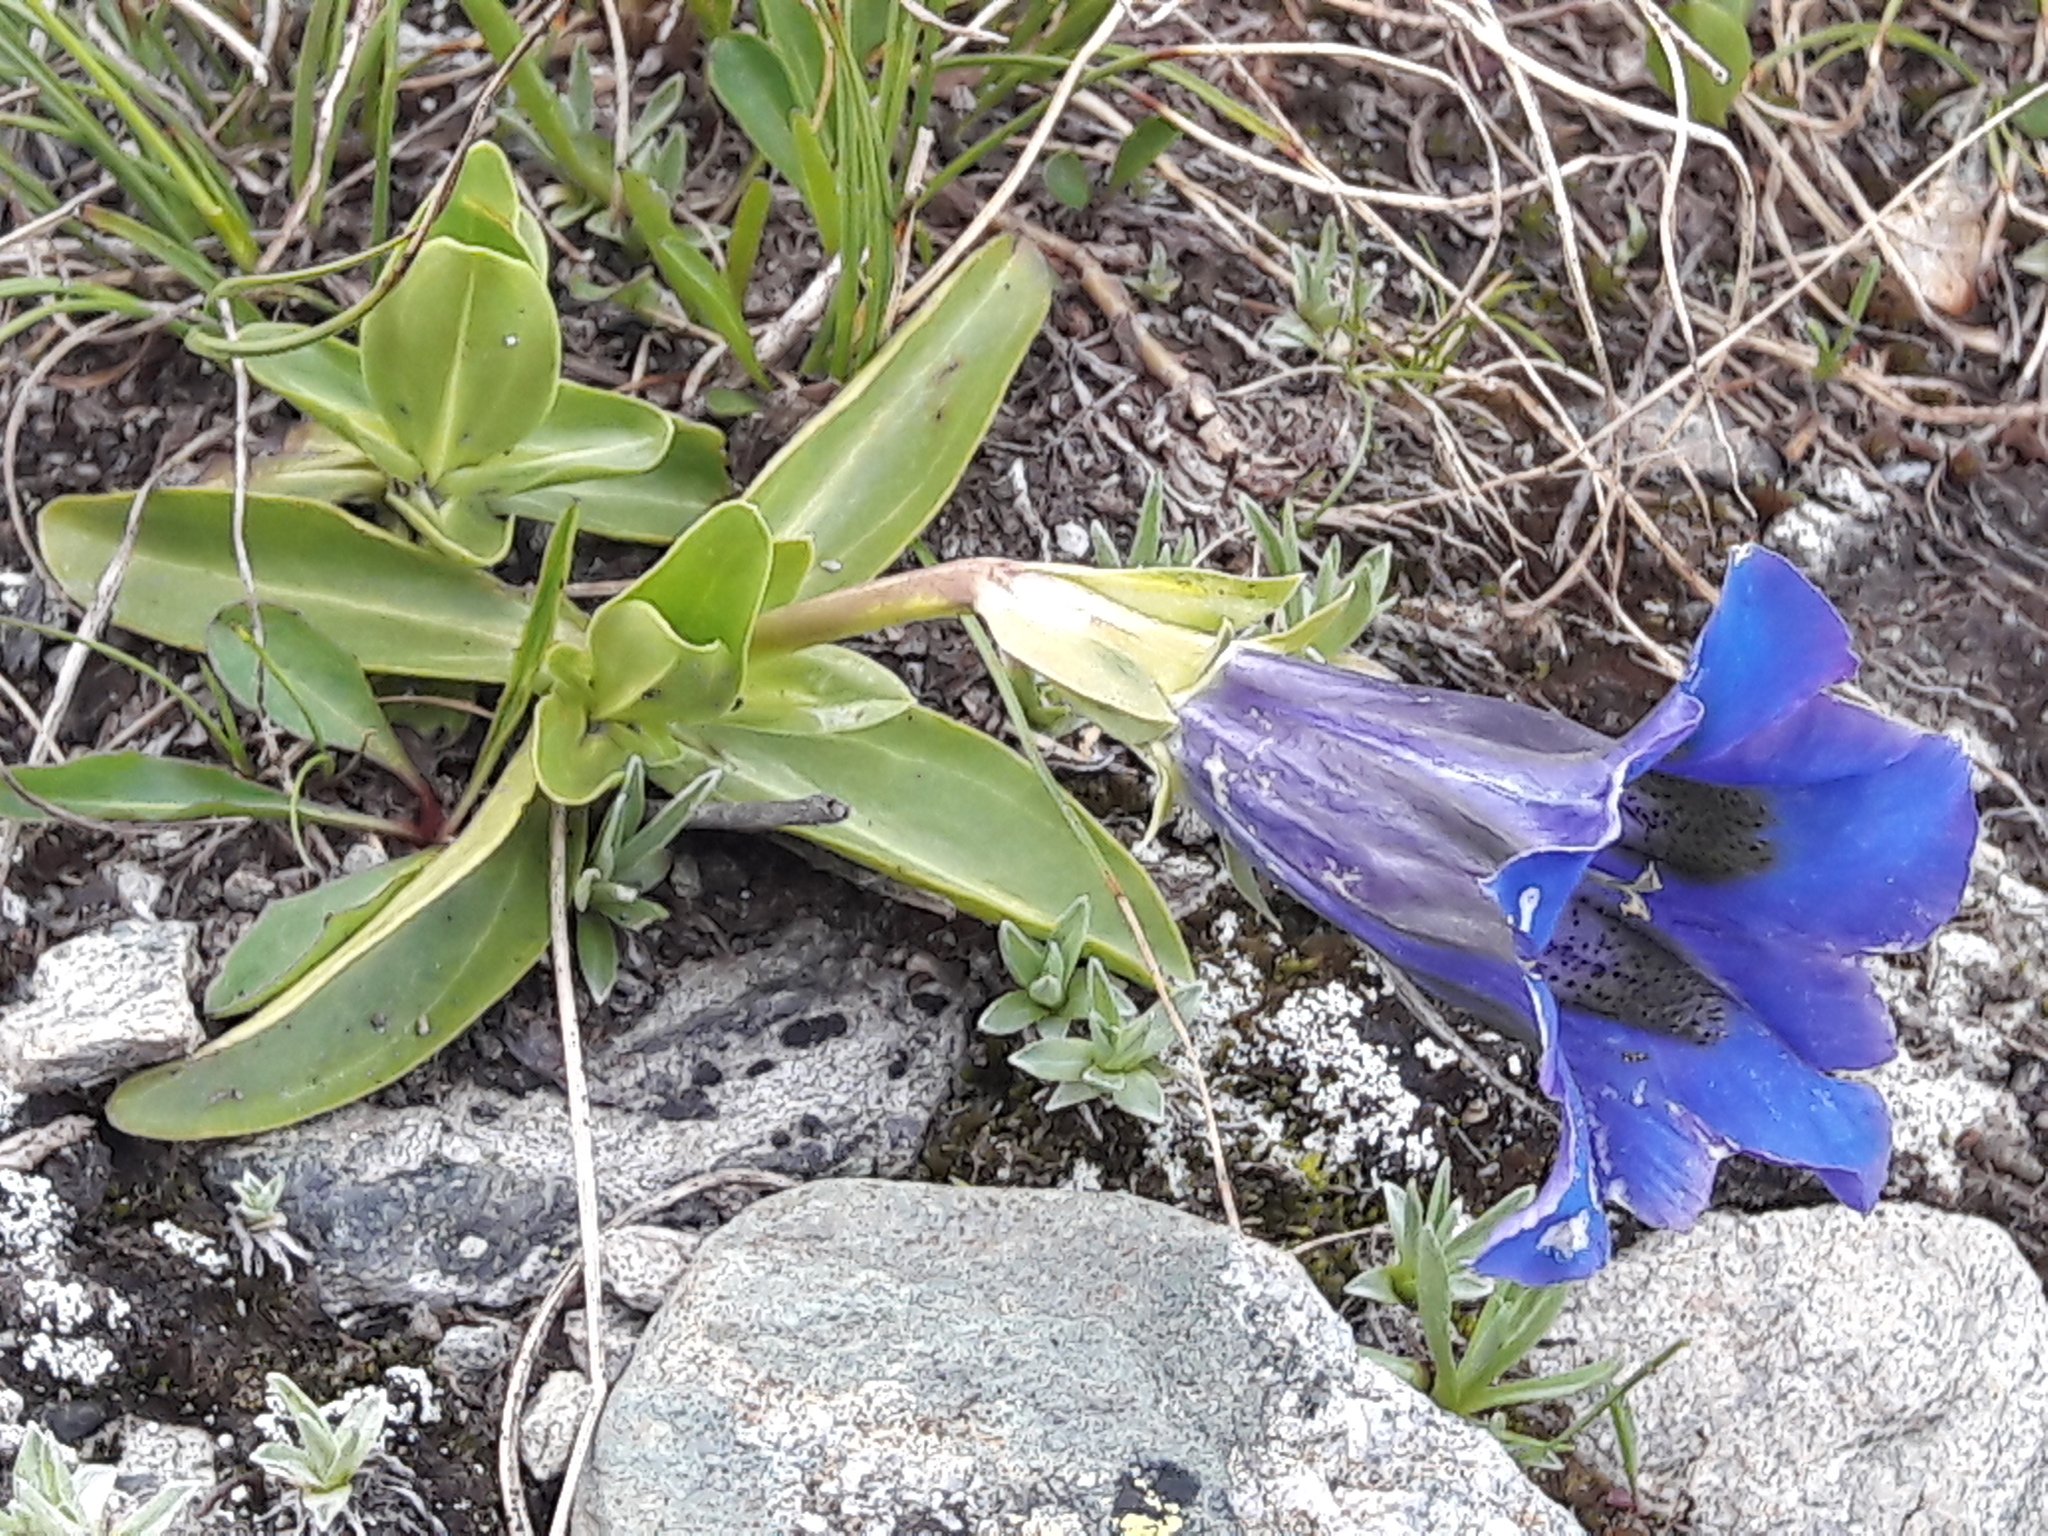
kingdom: Plantae
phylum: Tracheophyta
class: Magnoliopsida
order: Gentianales
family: Gentianaceae
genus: Gentiana
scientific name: Gentiana acaulis
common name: Trumpet gentian
